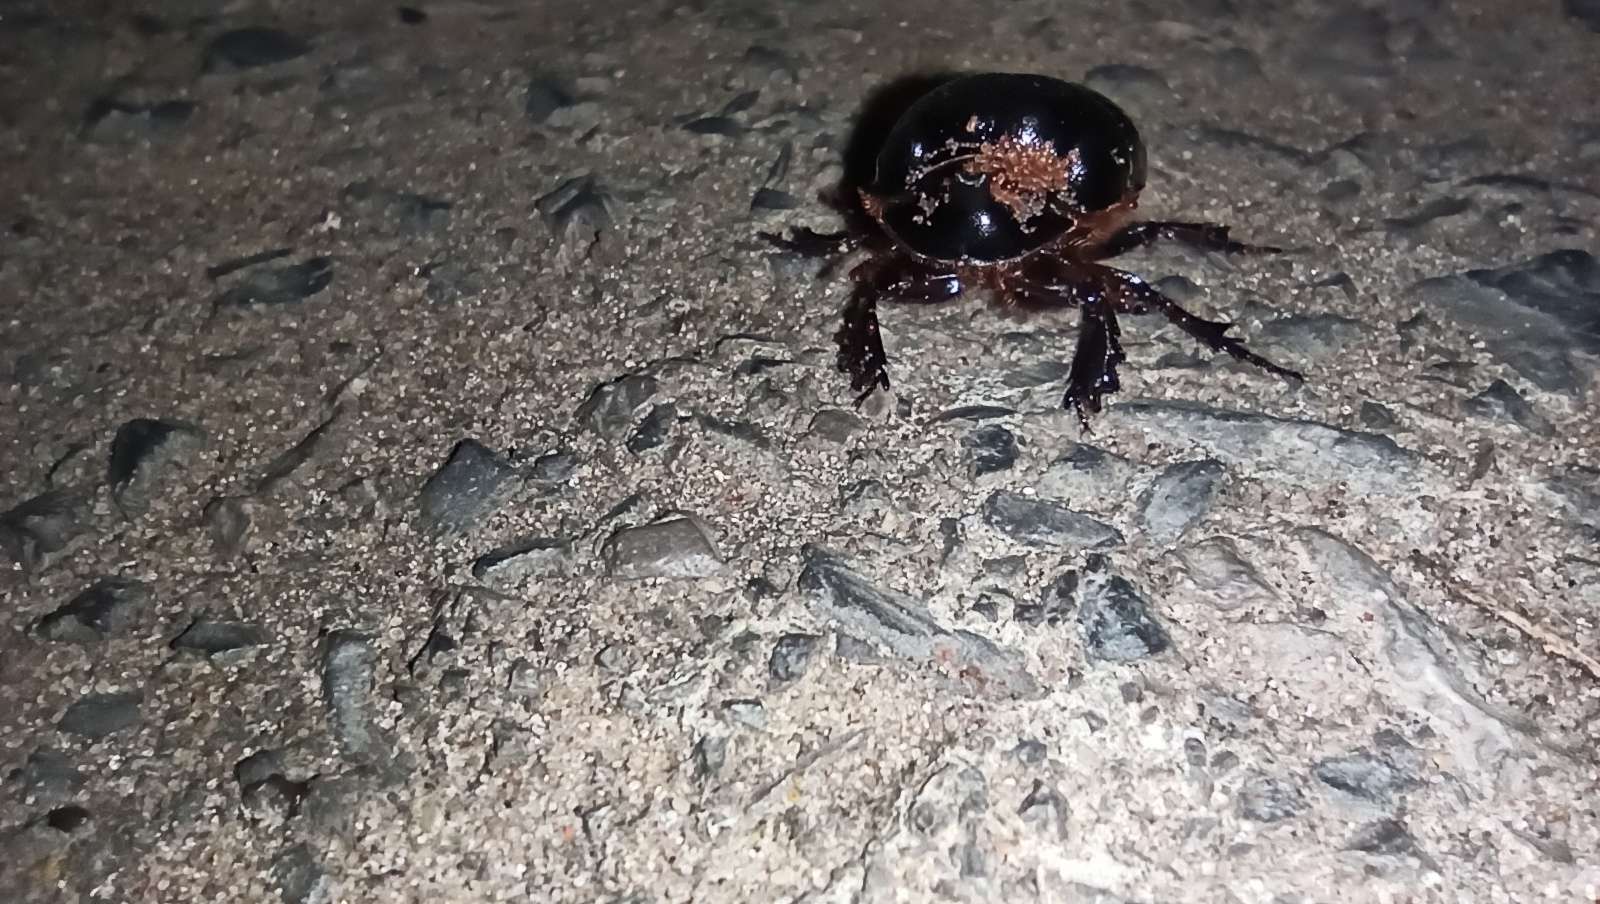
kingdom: Animalia
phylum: Arthropoda
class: Insecta
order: Coleoptera
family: Scarabaeidae
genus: Copris
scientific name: Copris lunaris
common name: Horned dung beetle
